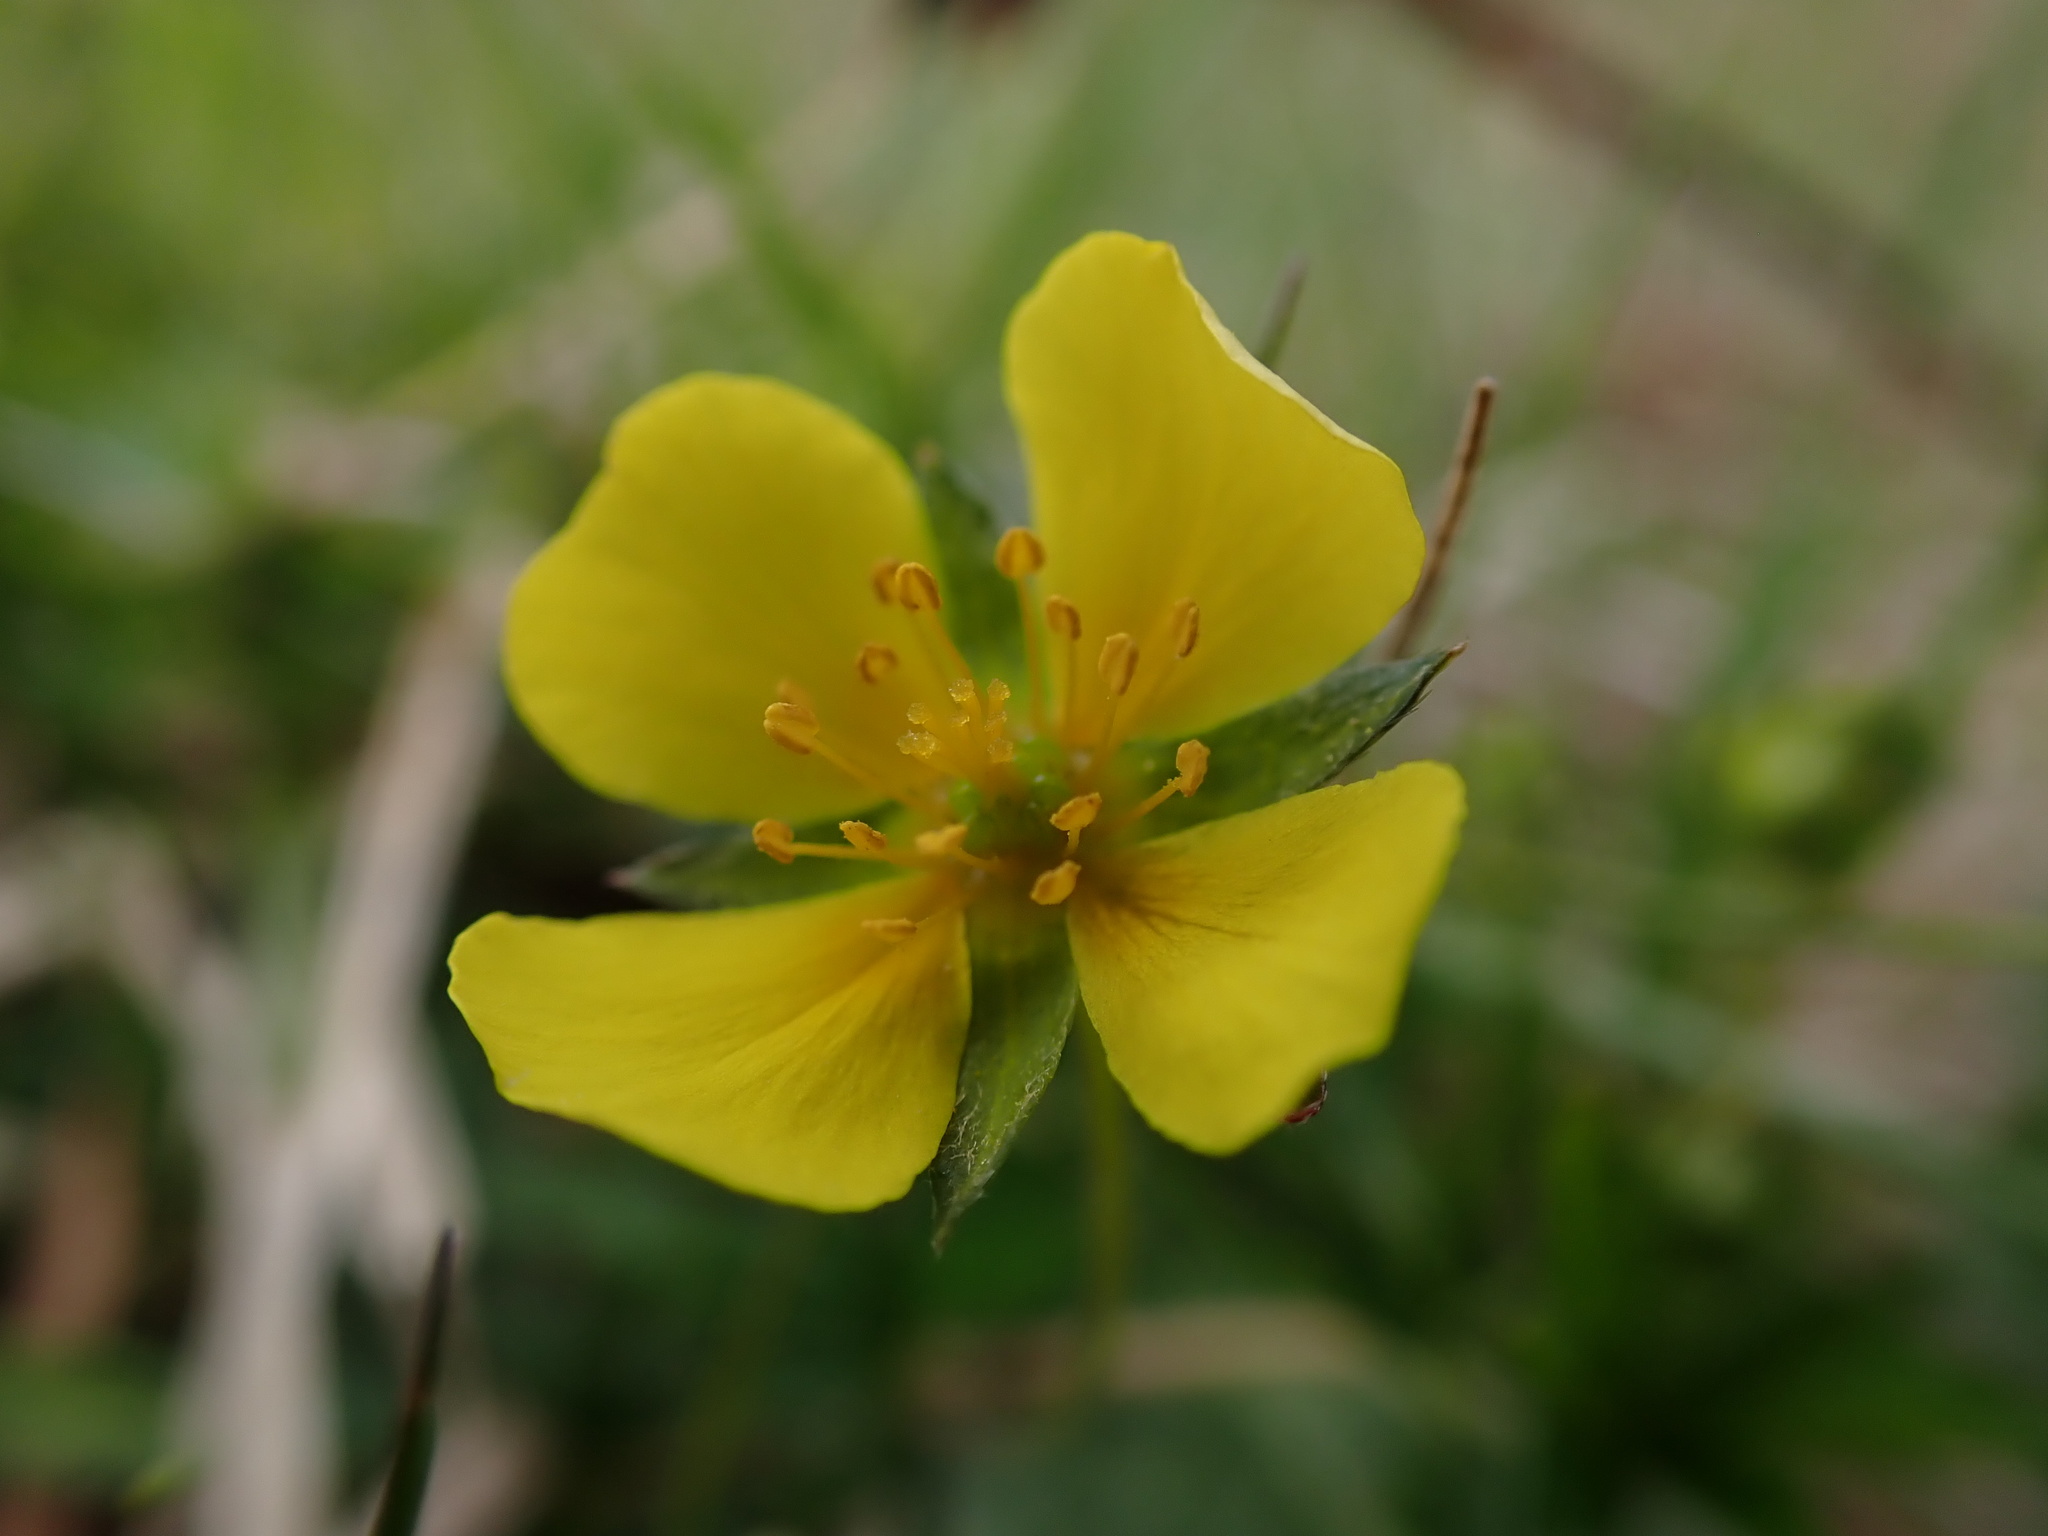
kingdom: Plantae
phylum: Tracheophyta
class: Magnoliopsida
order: Rosales
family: Rosaceae
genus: Potentilla
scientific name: Potentilla erecta
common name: Tormentil
